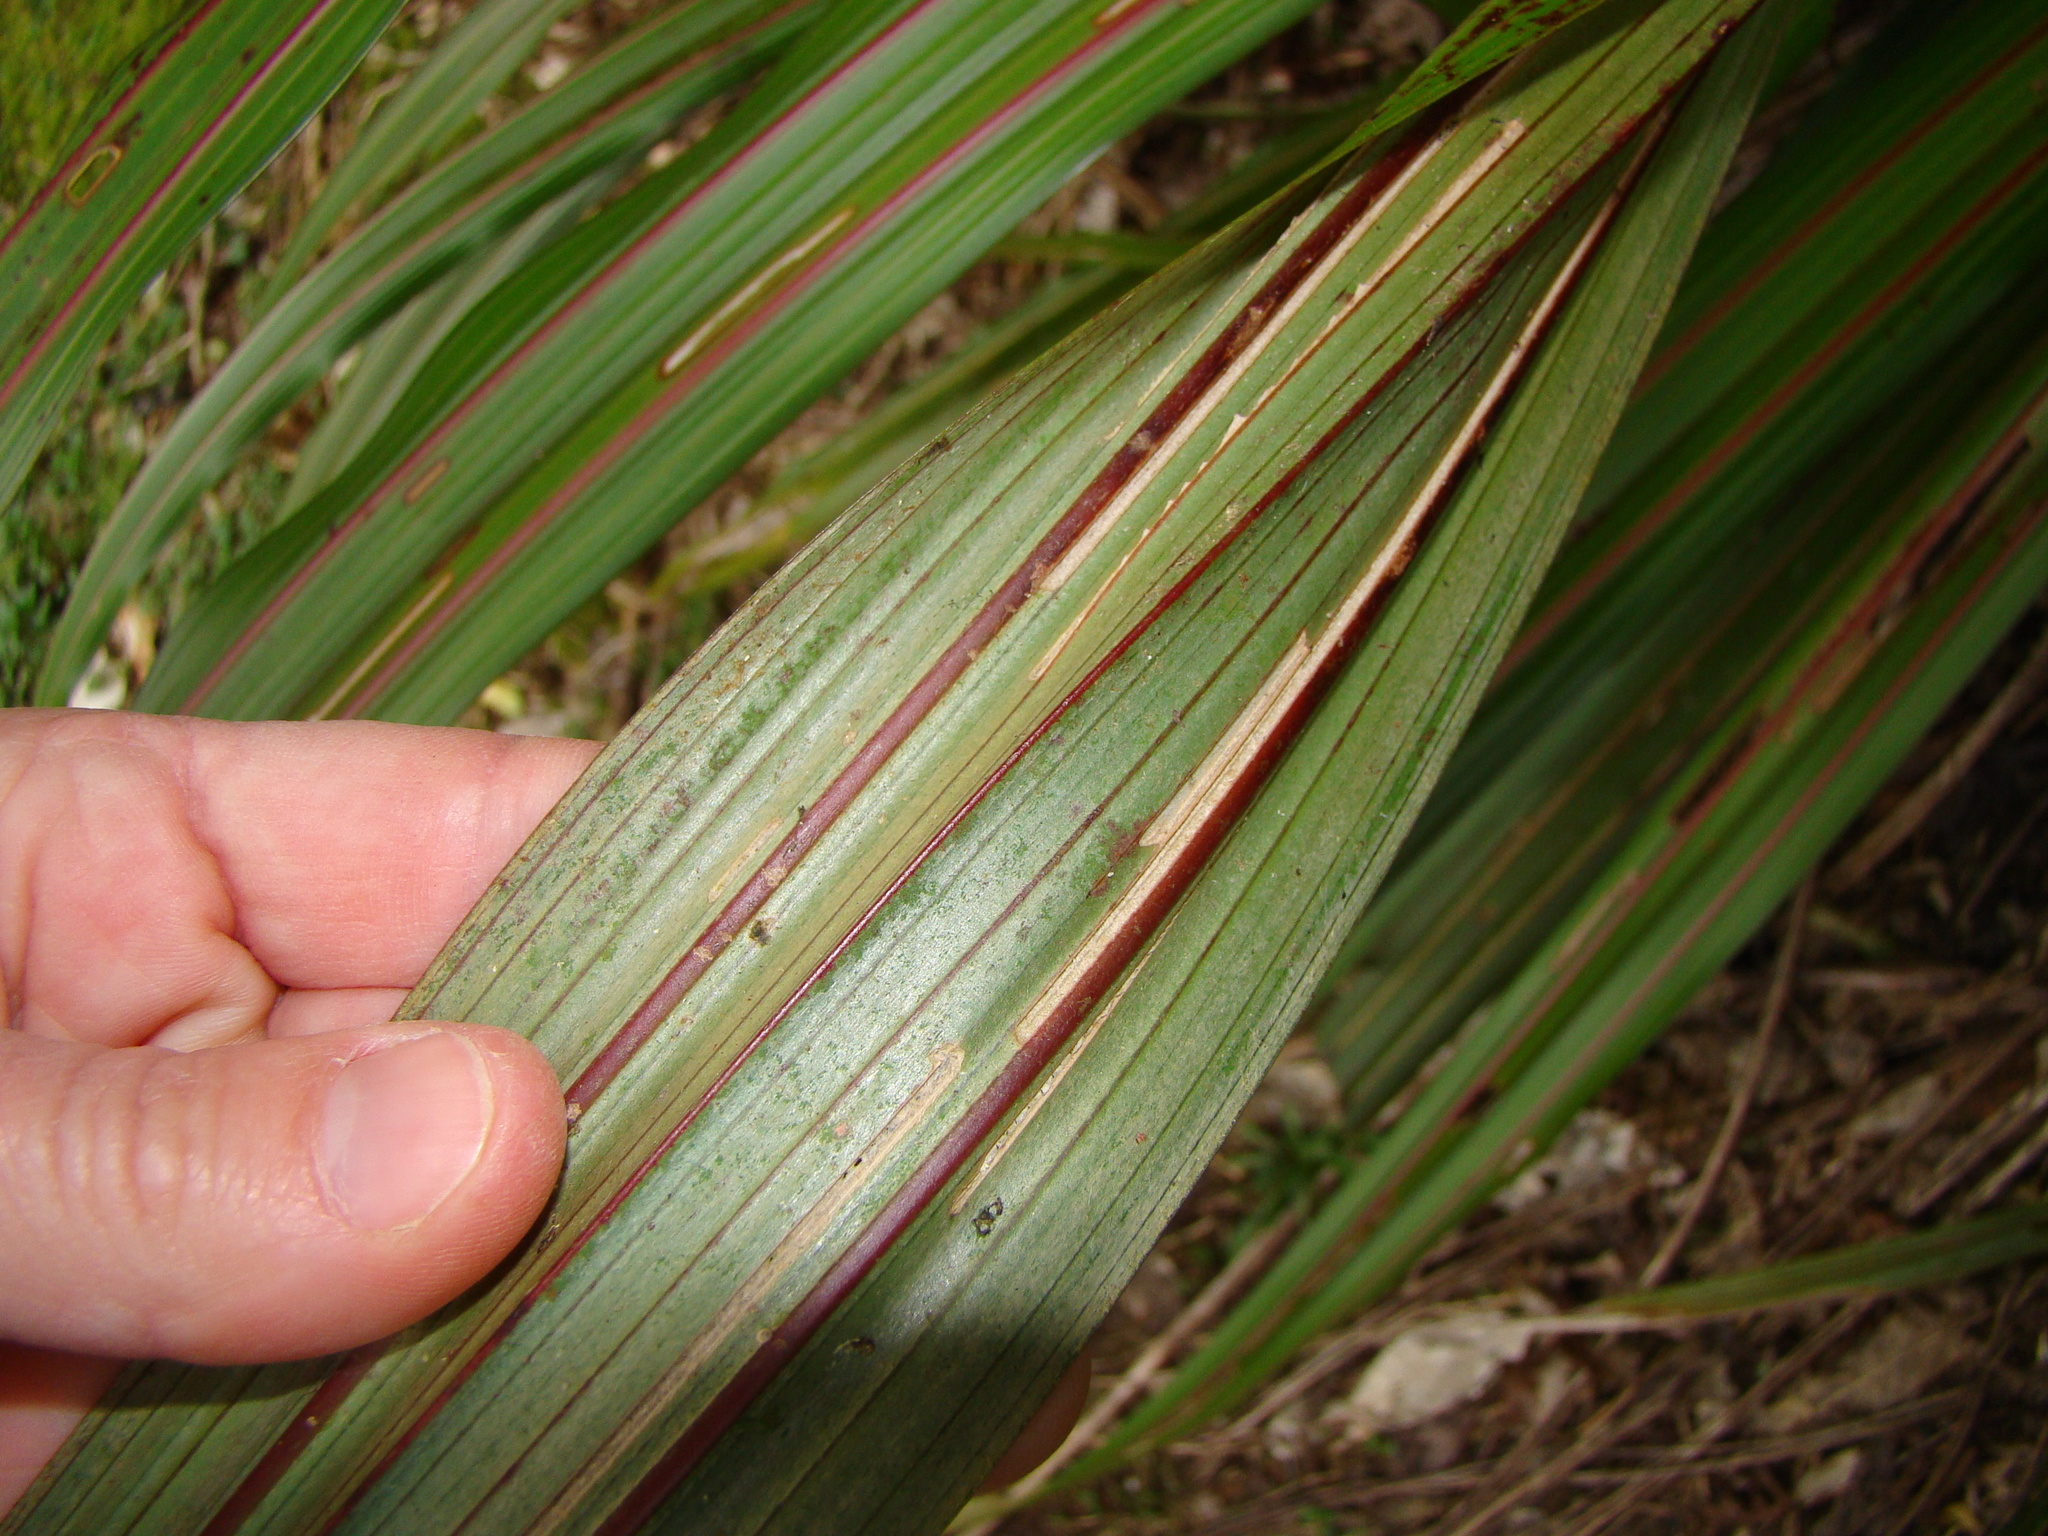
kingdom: Plantae
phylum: Tracheophyta
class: Liliopsida
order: Asparagales
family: Asteliaceae
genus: Astelia
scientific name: Astelia fragrans
